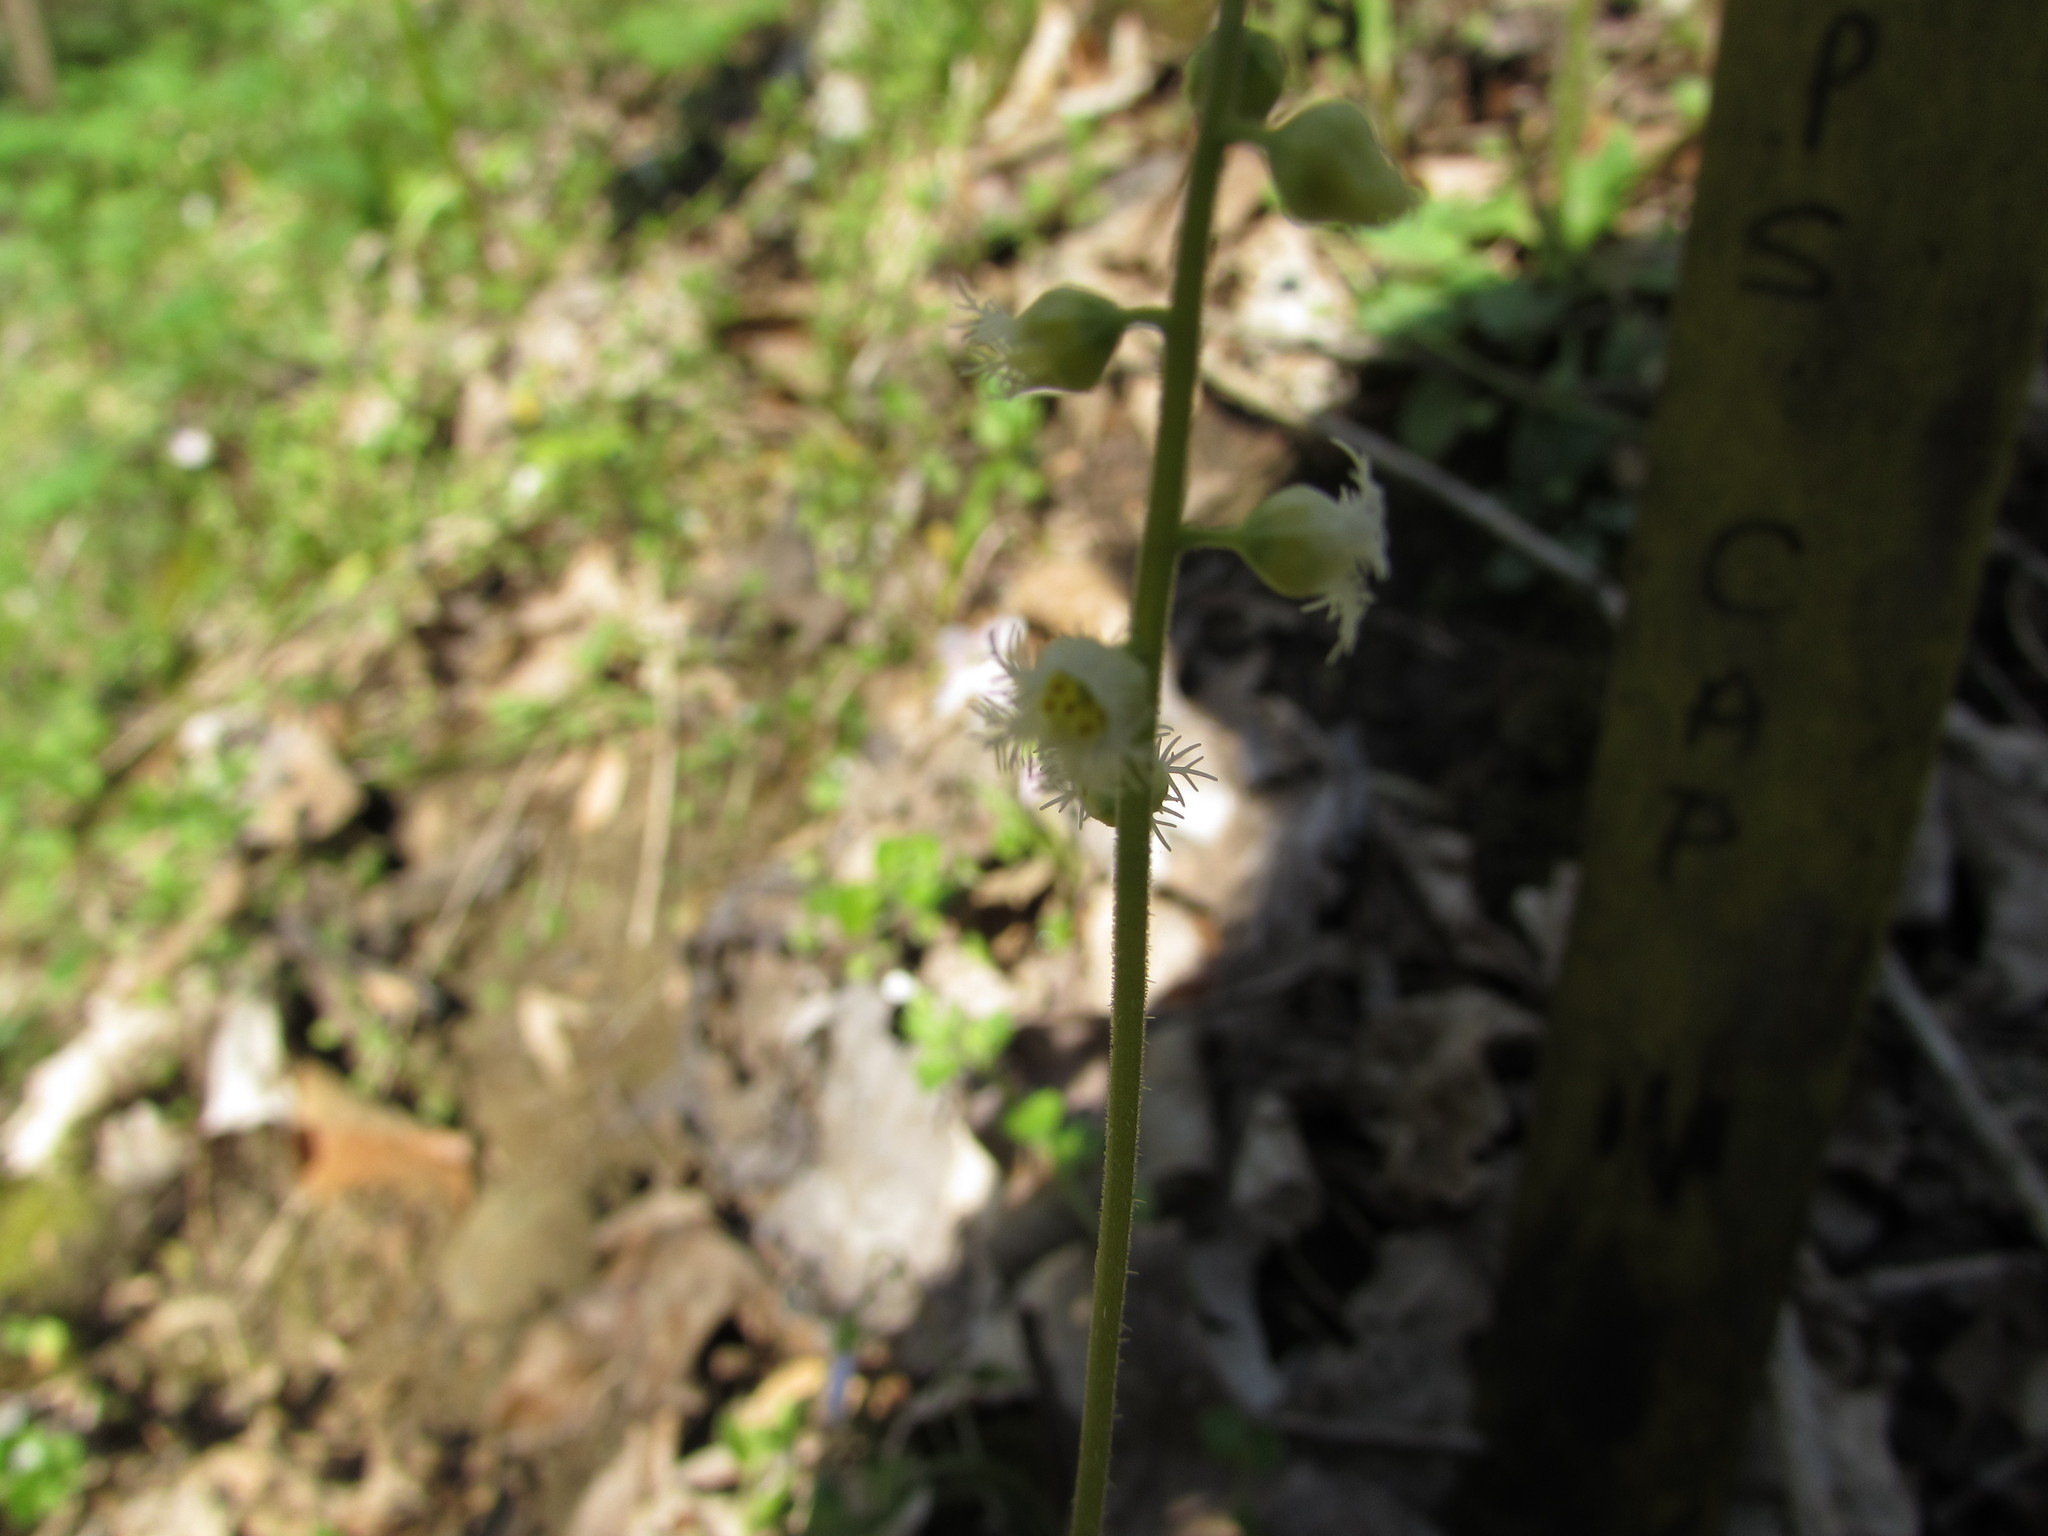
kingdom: Plantae
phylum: Tracheophyta
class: Magnoliopsida
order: Saxifragales
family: Saxifragaceae
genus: Mitella
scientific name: Mitella diphylla
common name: Coolwort
